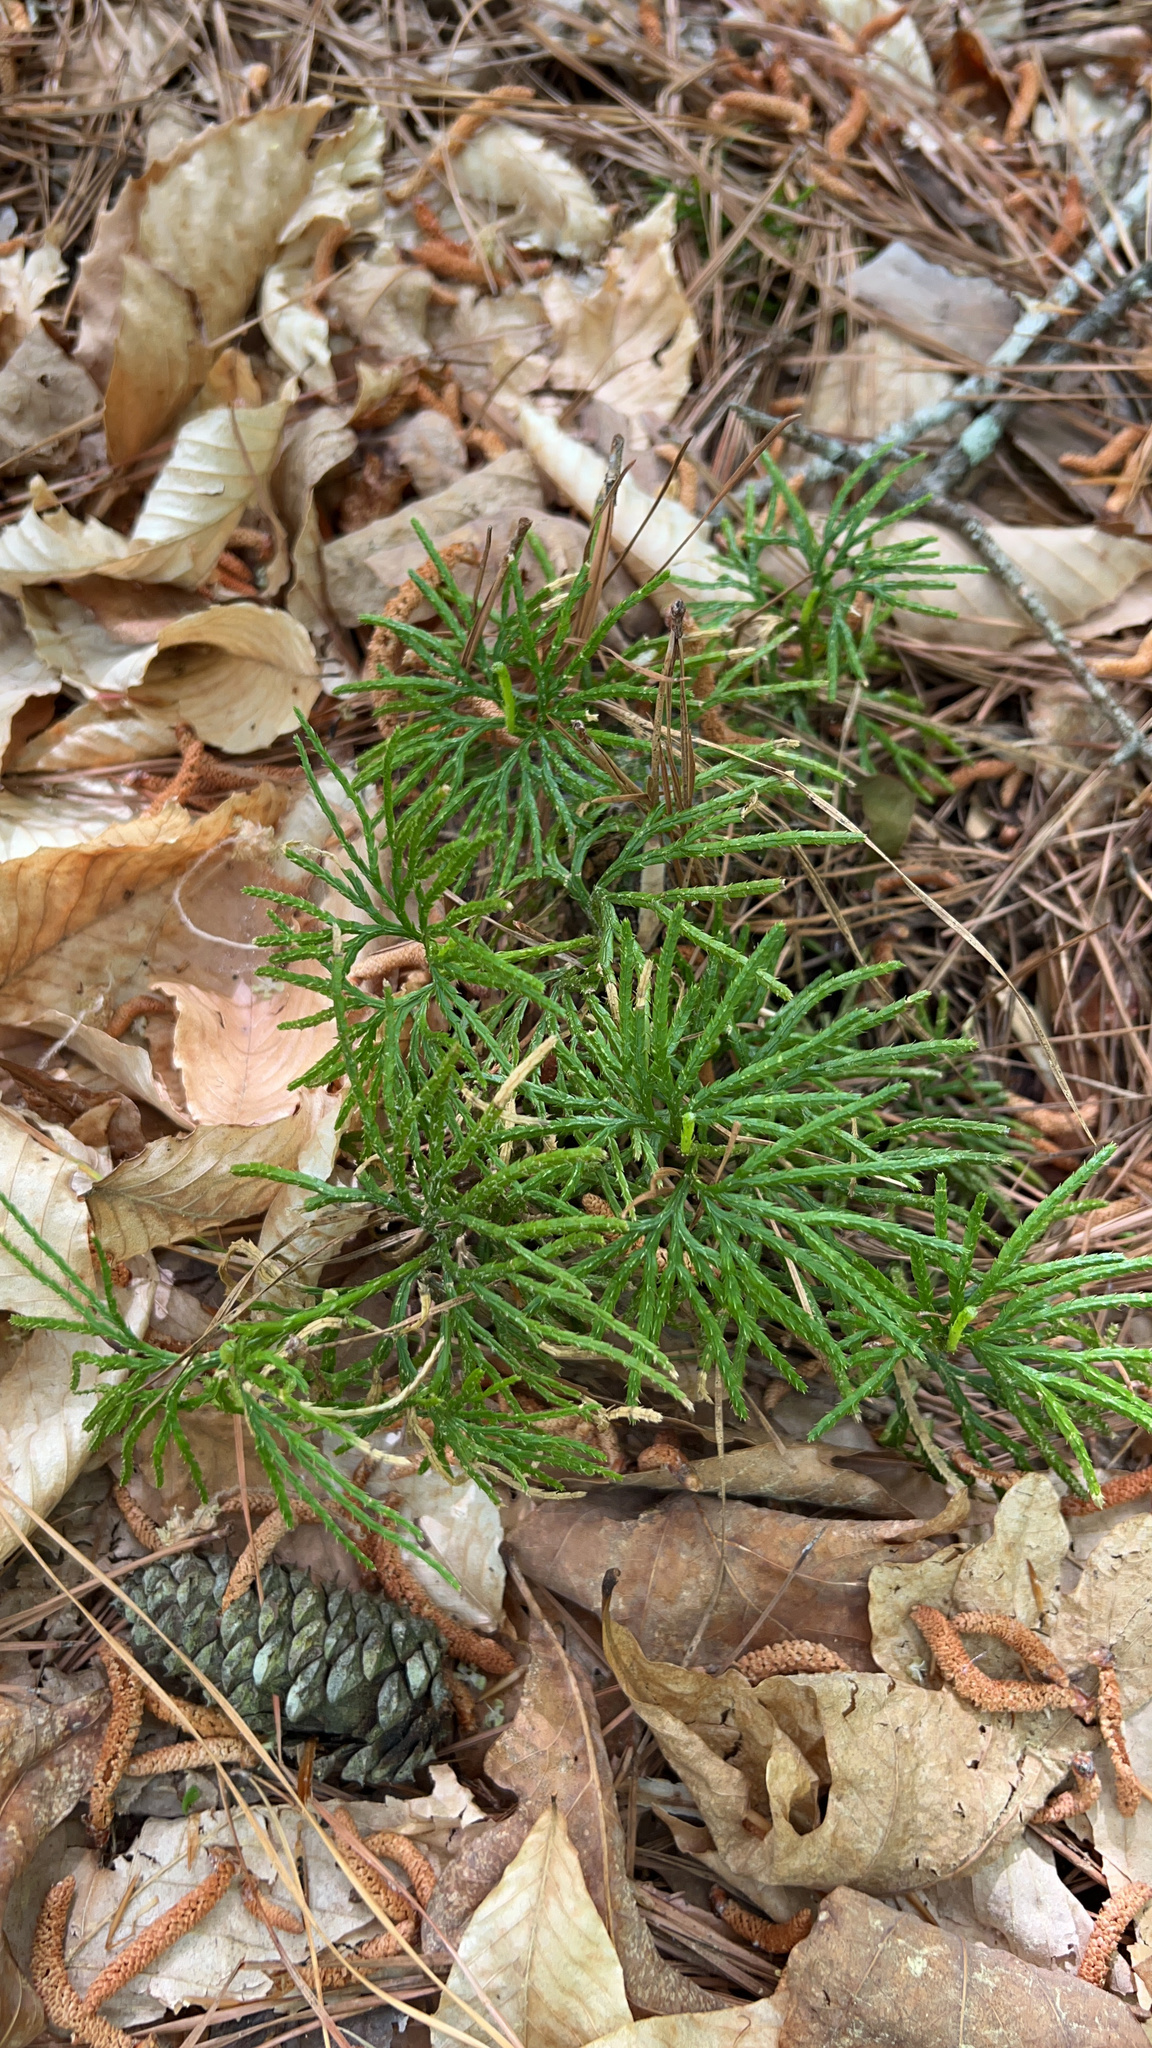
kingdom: Plantae
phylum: Tracheophyta
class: Lycopodiopsida
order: Lycopodiales
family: Lycopodiaceae
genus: Diphasiastrum
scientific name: Diphasiastrum digitatum
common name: Southern running-pine
